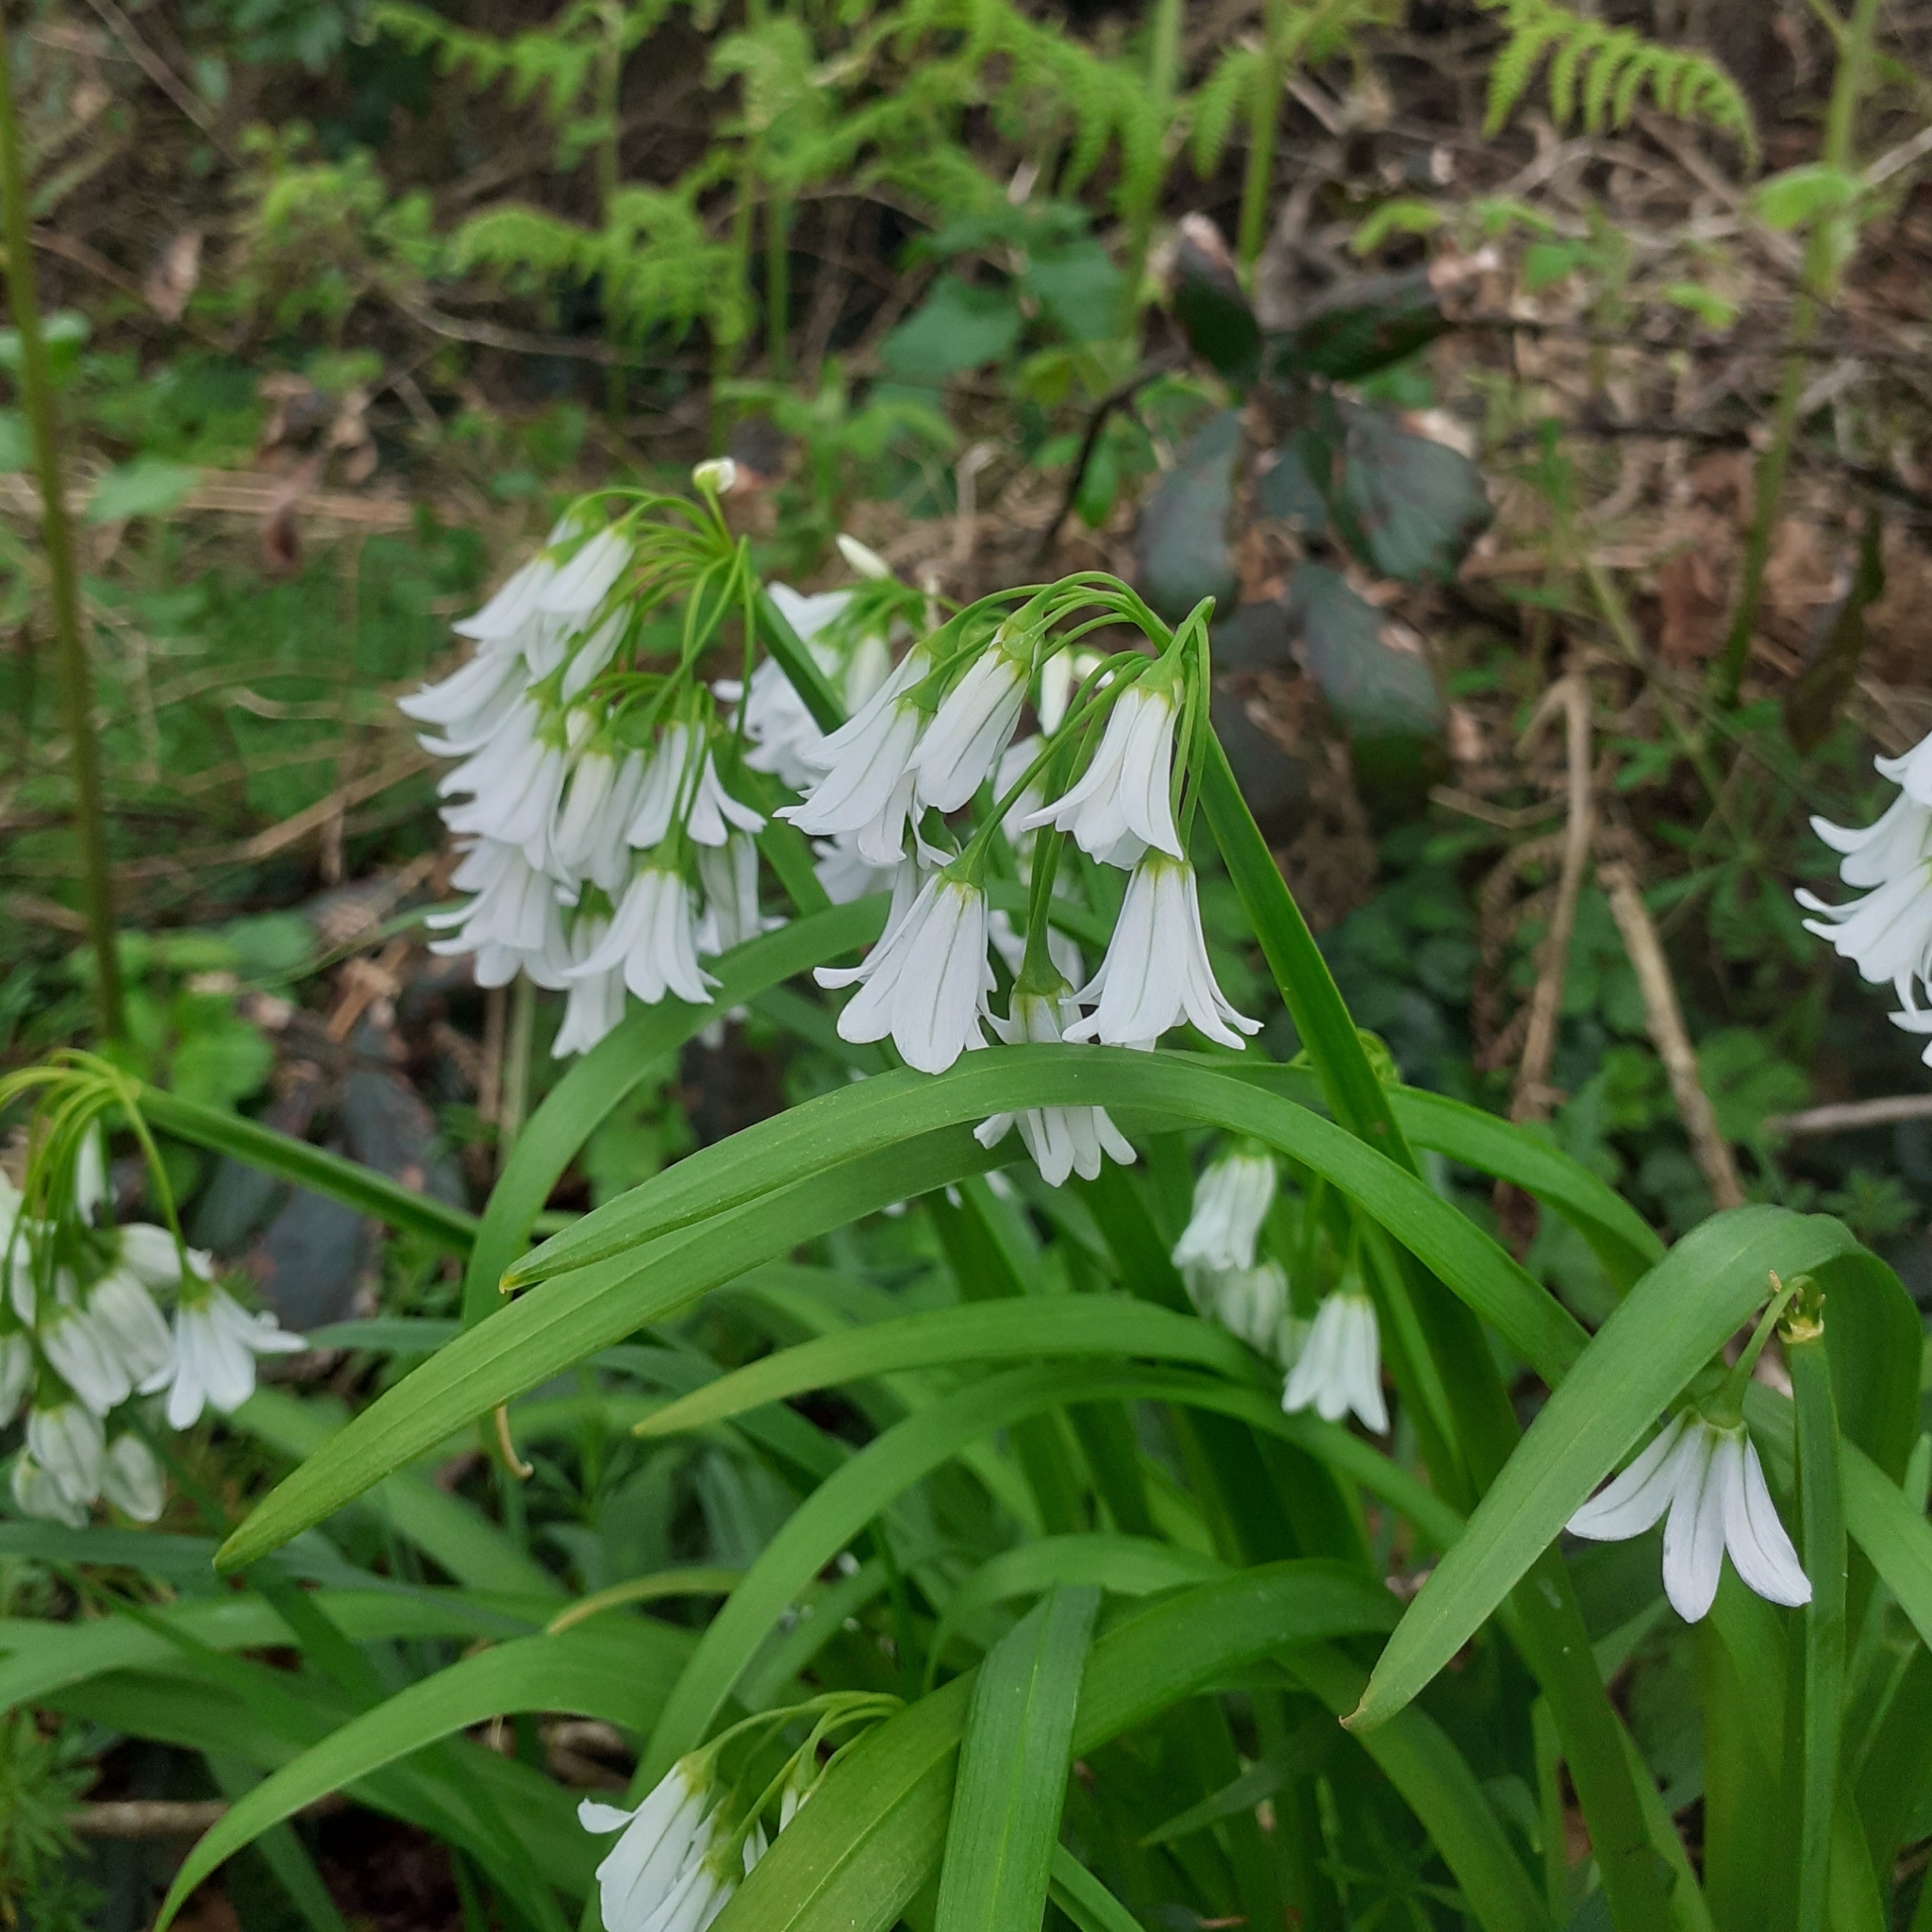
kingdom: Plantae
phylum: Tracheophyta
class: Liliopsida
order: Asparagales
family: Amaryllidaceae
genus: Allium
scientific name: Allium triquetrum
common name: Three-cornered garlic
